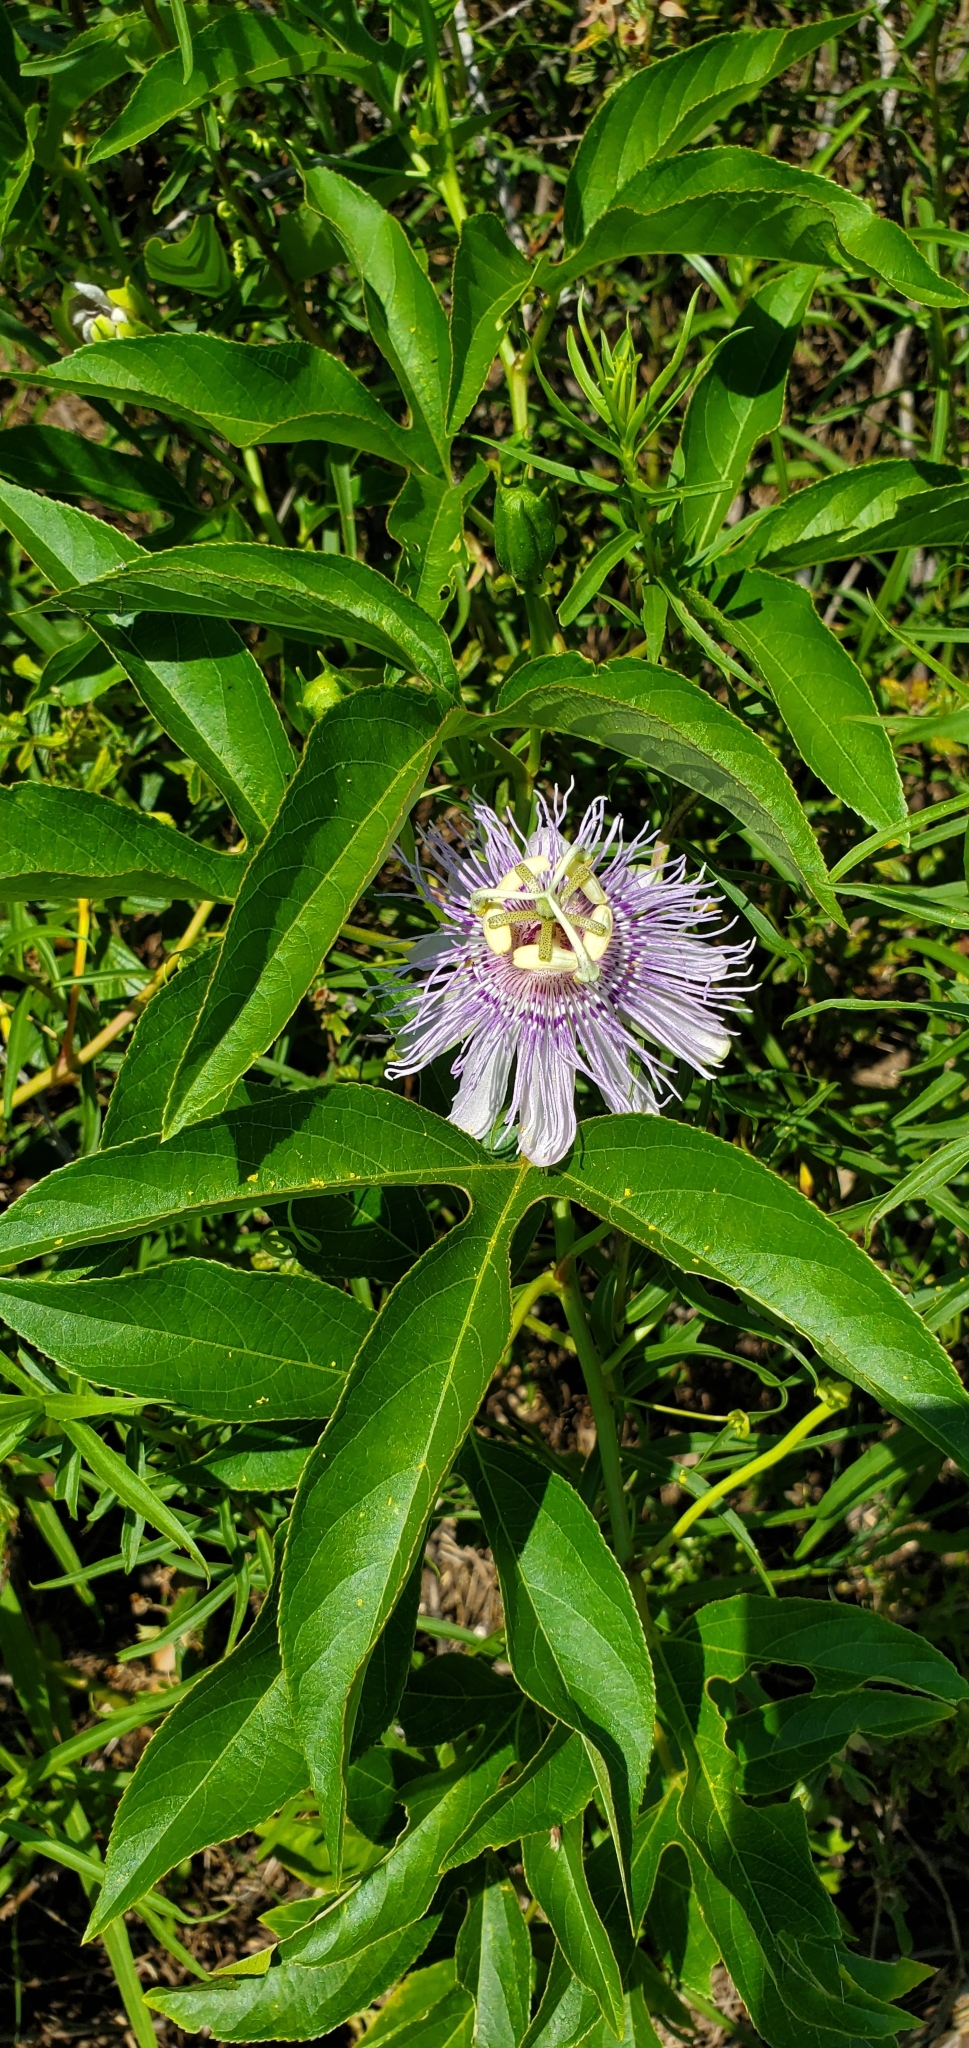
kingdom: Plantae
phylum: Tracheophyta
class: Magnoliopsida
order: Malpighiales
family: Passifloraceae
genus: Passiflora
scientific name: Passiflora incarnata
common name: Apricot-vine
